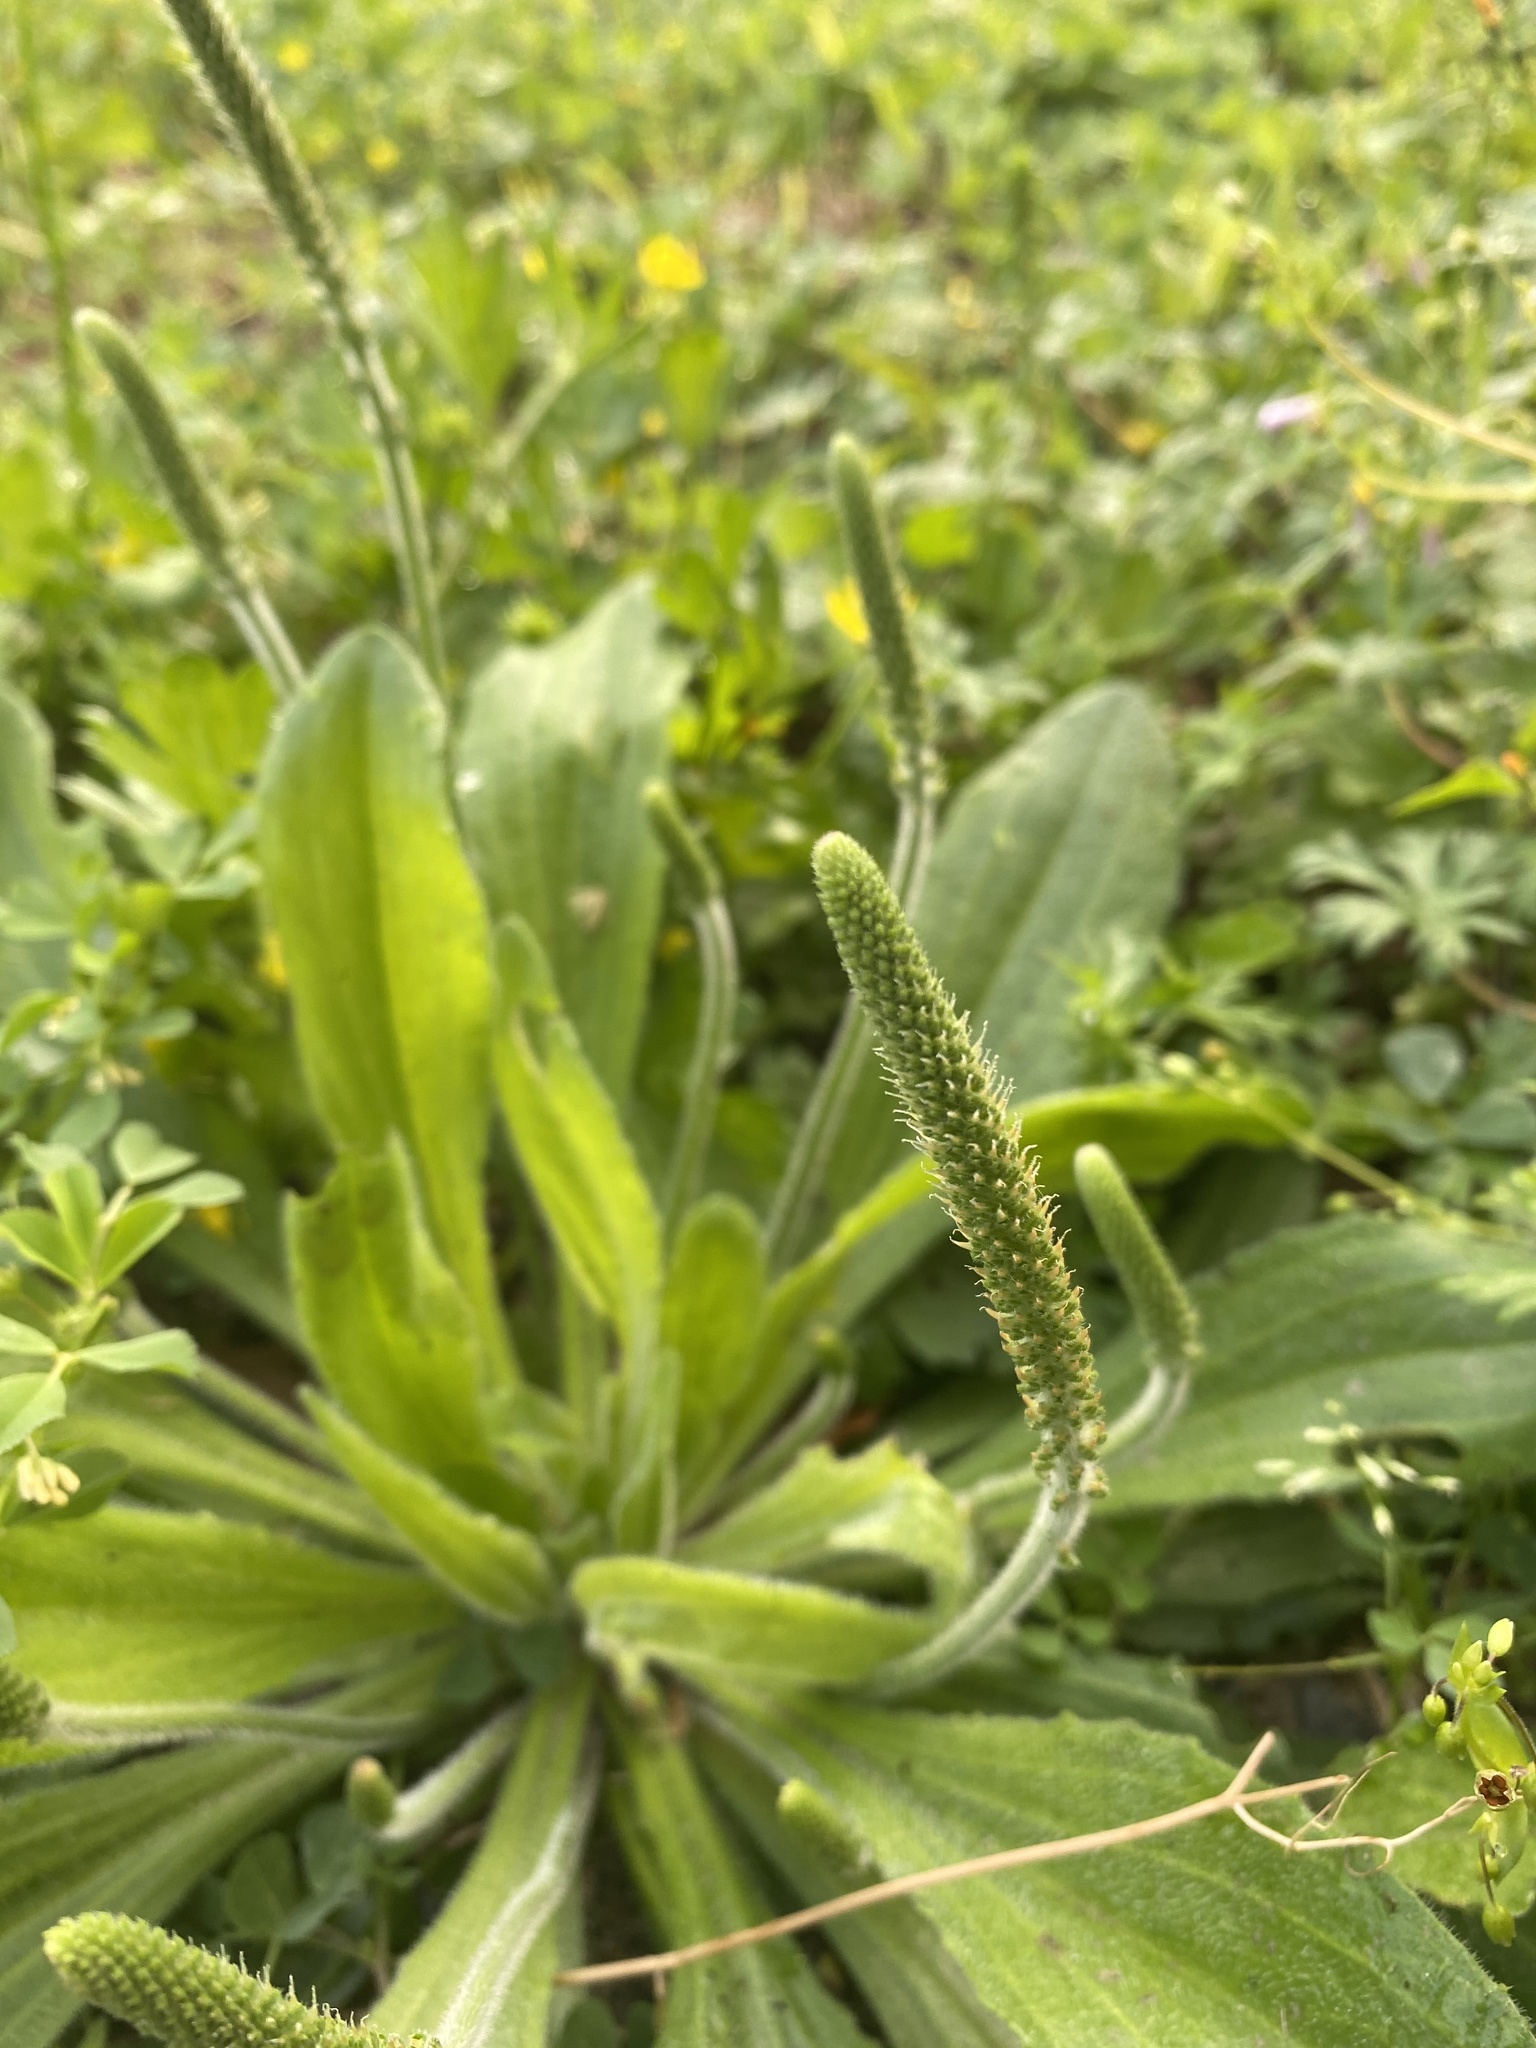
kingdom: Plantae
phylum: Tracheophyta
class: Magnoliopsida
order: Lamiales
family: Plantaginaceae
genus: Plantago
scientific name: Plantago virginica
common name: Hoary plantain
